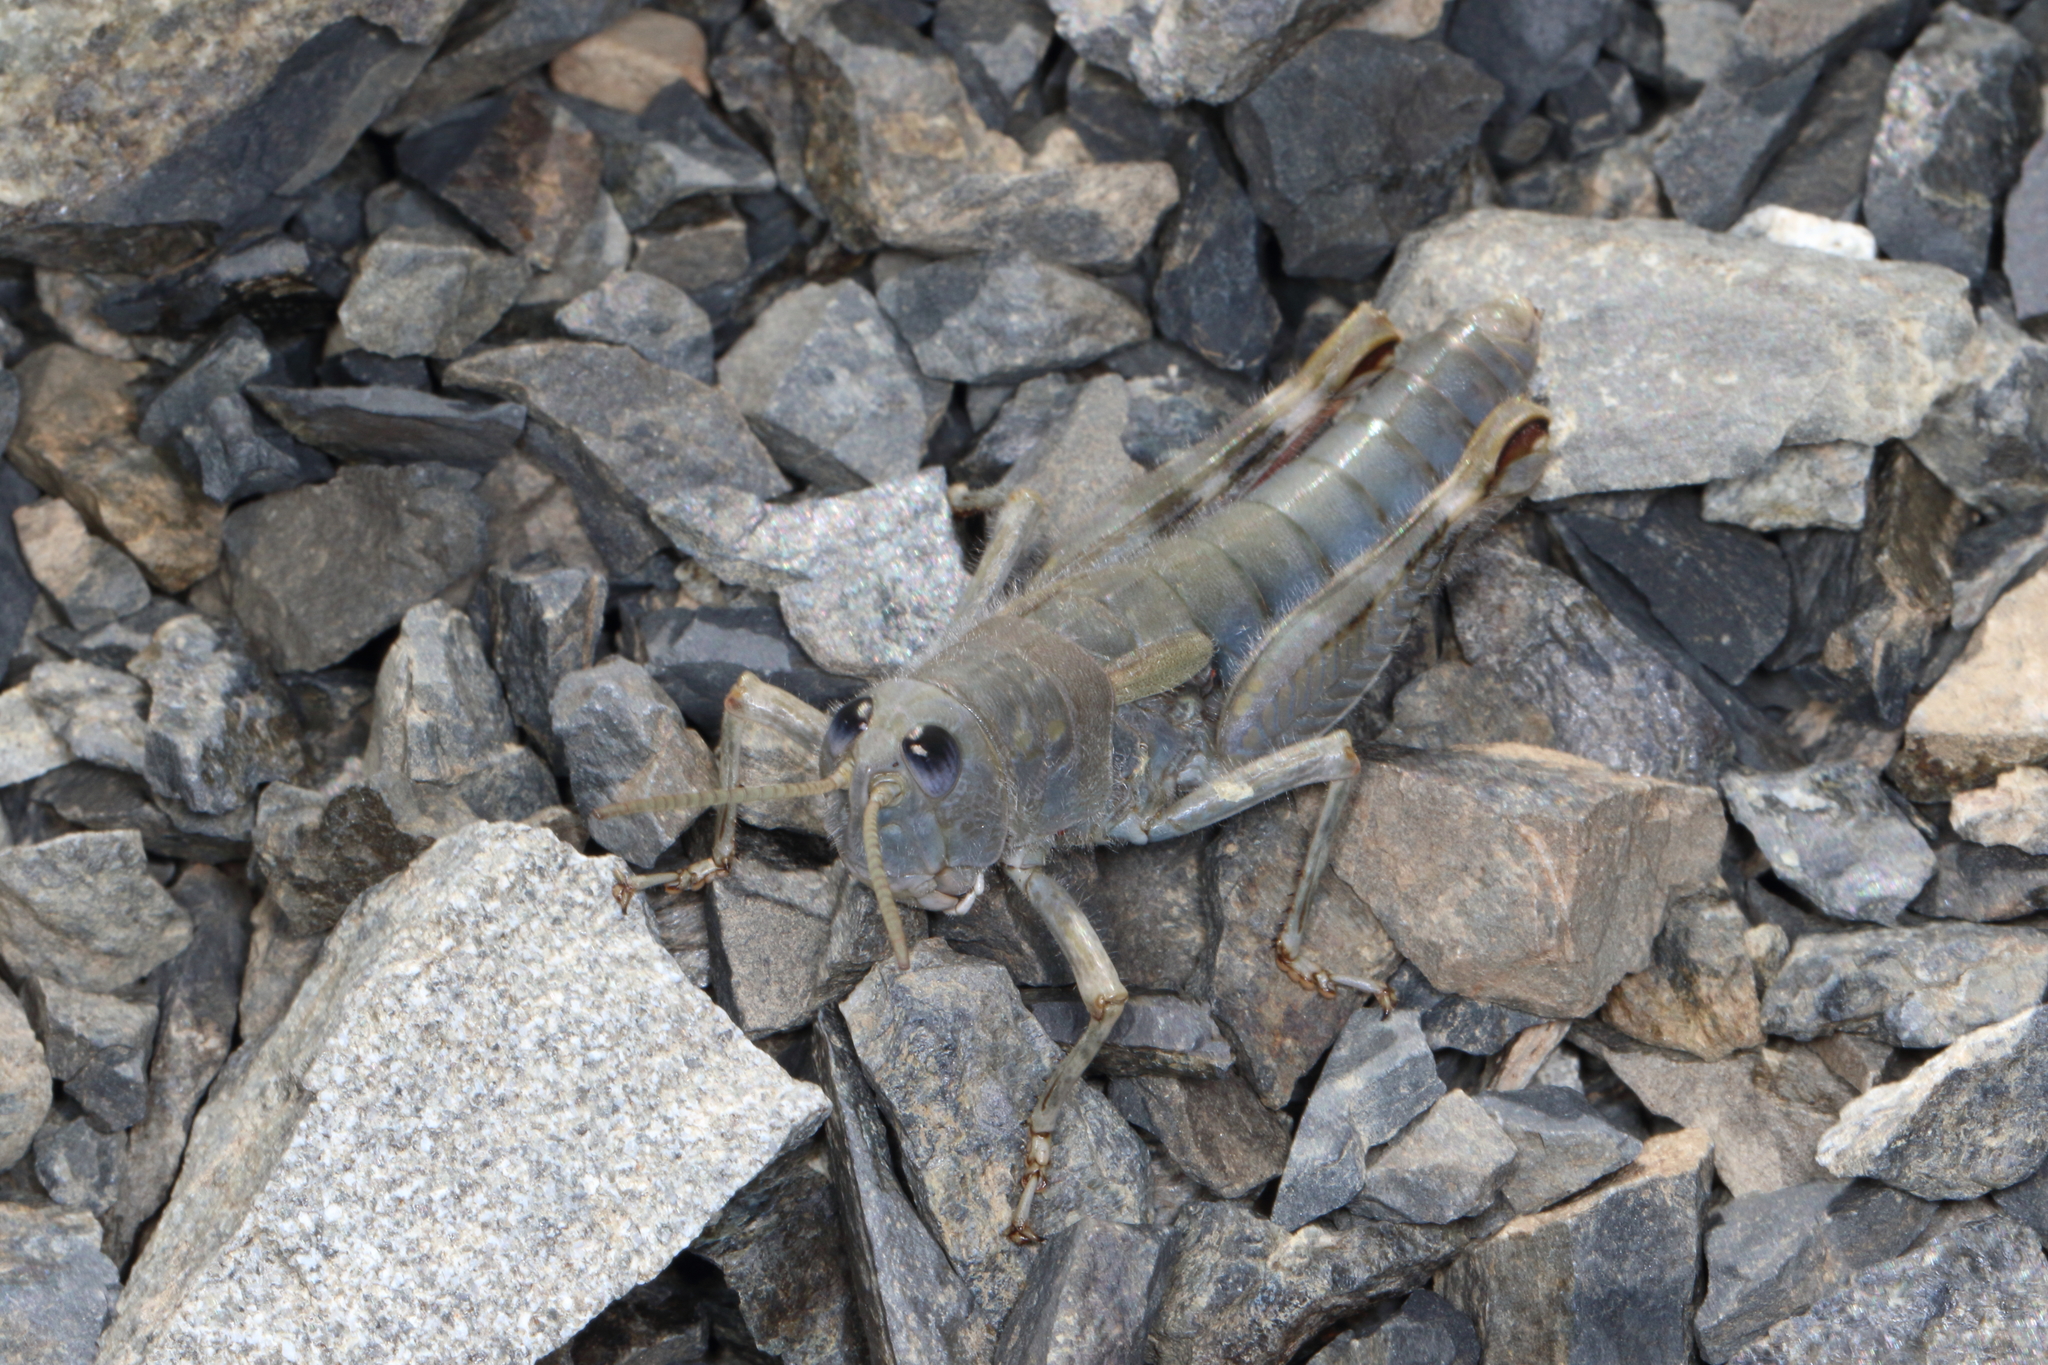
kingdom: Animalia
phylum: Arthropoda
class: Insecta
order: Orthoptera
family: Acrididae
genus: Sigaus
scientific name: Sigaus villosus
